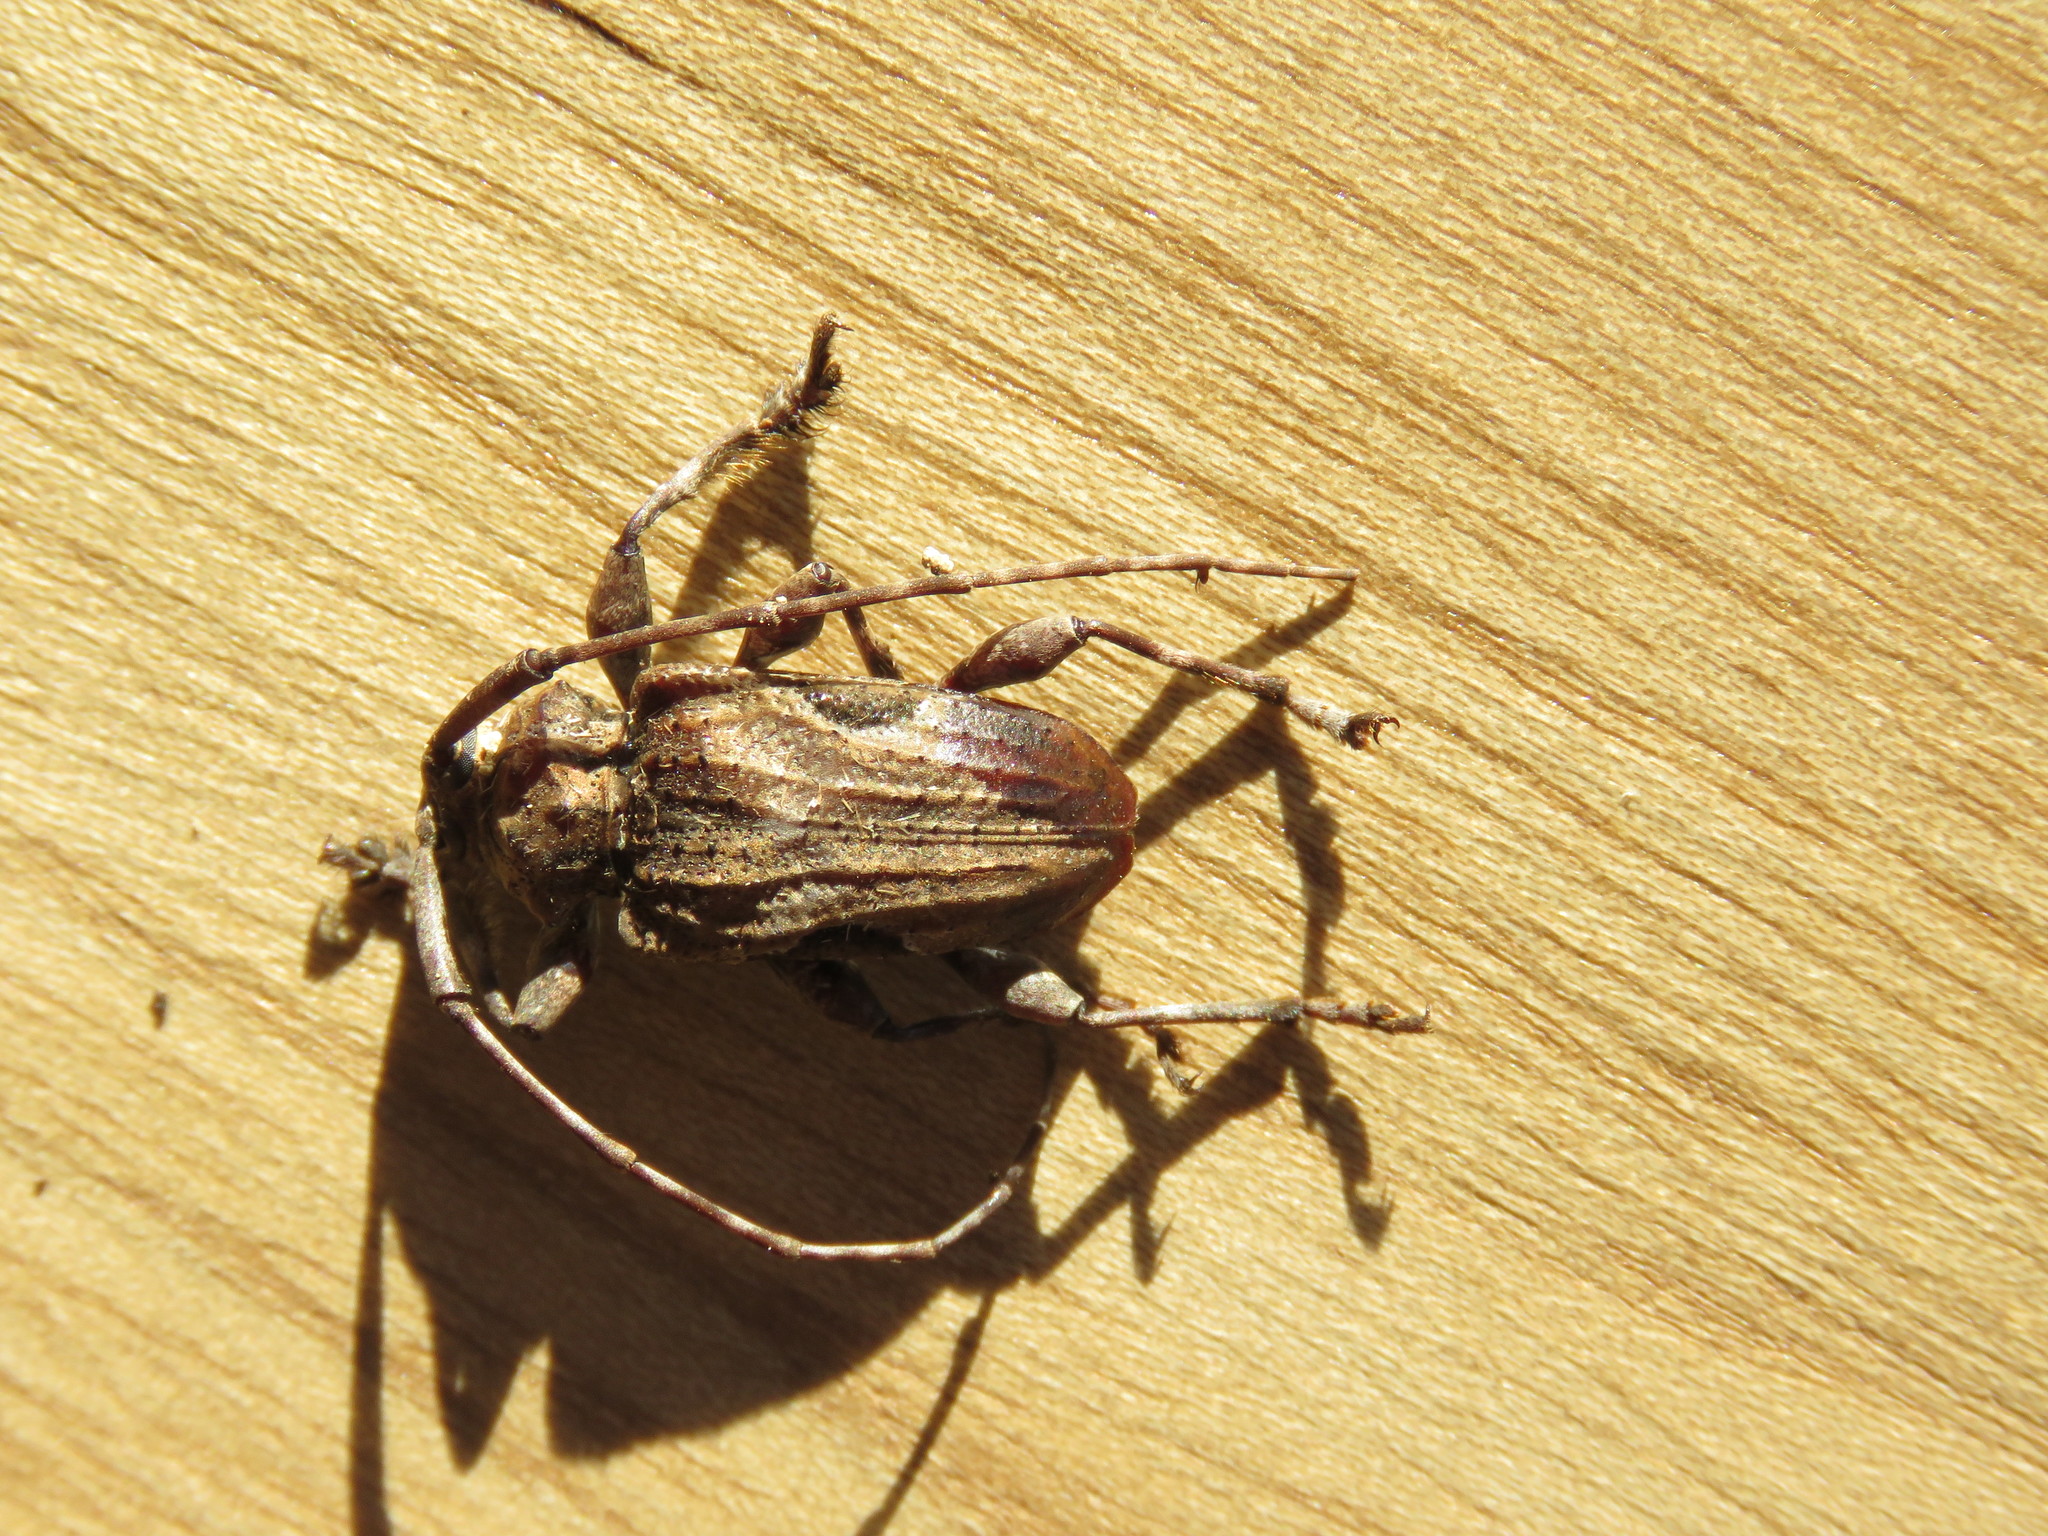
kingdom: Animalia
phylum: Arthropoda
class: Insecta
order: Coleoptera
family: Cerambycidae
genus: Lagocheirus
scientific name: Lagocheirus obsoletus
